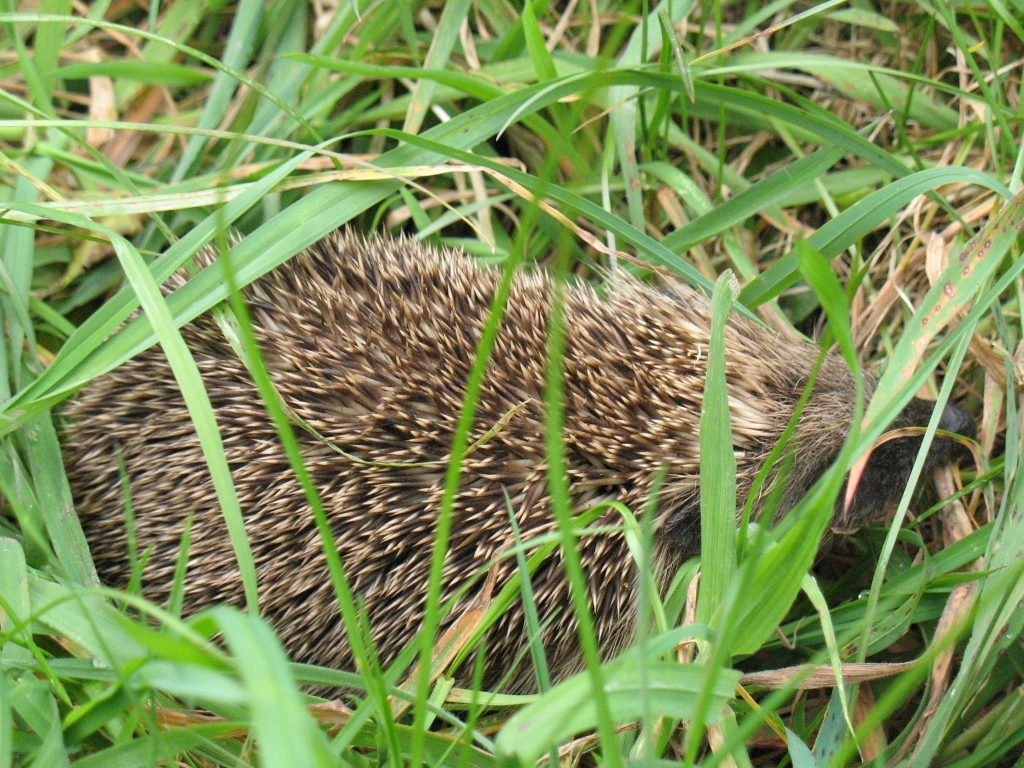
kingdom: Animalia
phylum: Chordata
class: Mammalia
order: Erinaceomorpha
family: Erinaceidae
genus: Erinaceus
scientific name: Erinaceus europaeus
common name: West european hedgehog
